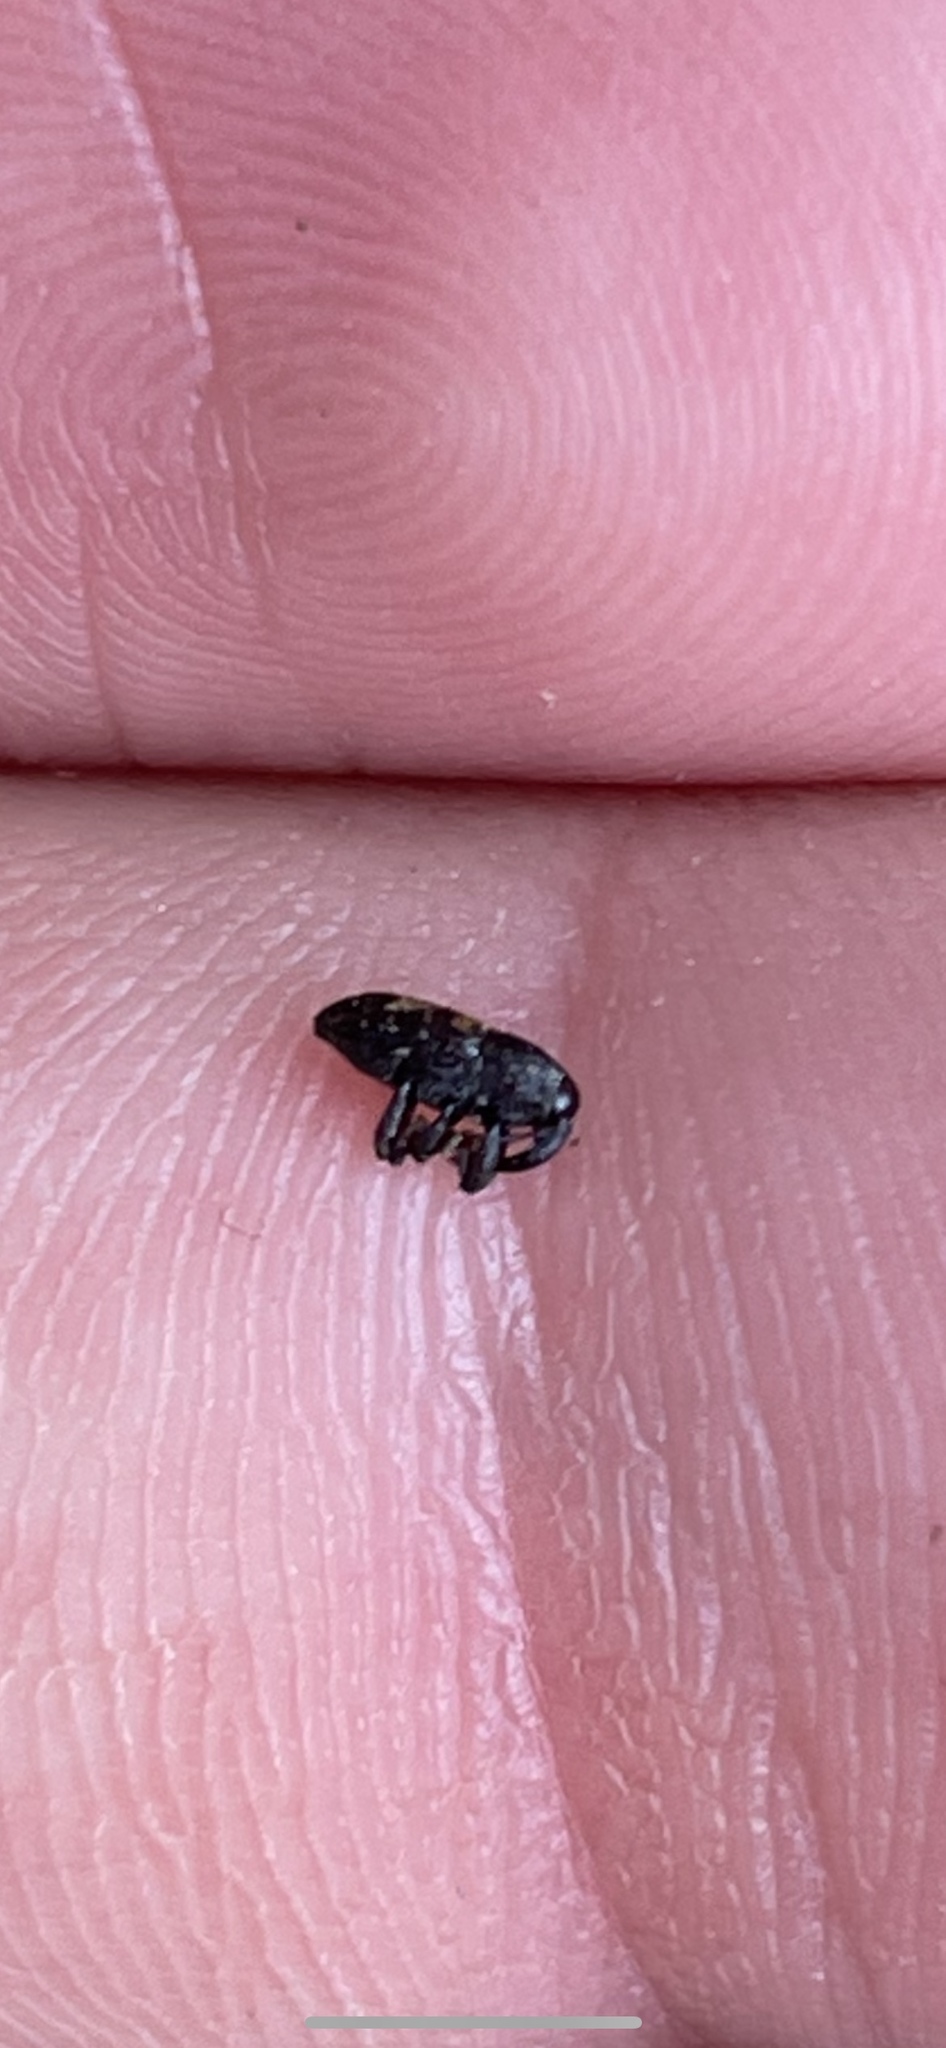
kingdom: Animalia
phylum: Arthropoda
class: Insecta
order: Coleoptera
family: Curculionidae
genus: Glyptobaris
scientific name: Glyptobaris lecontei
